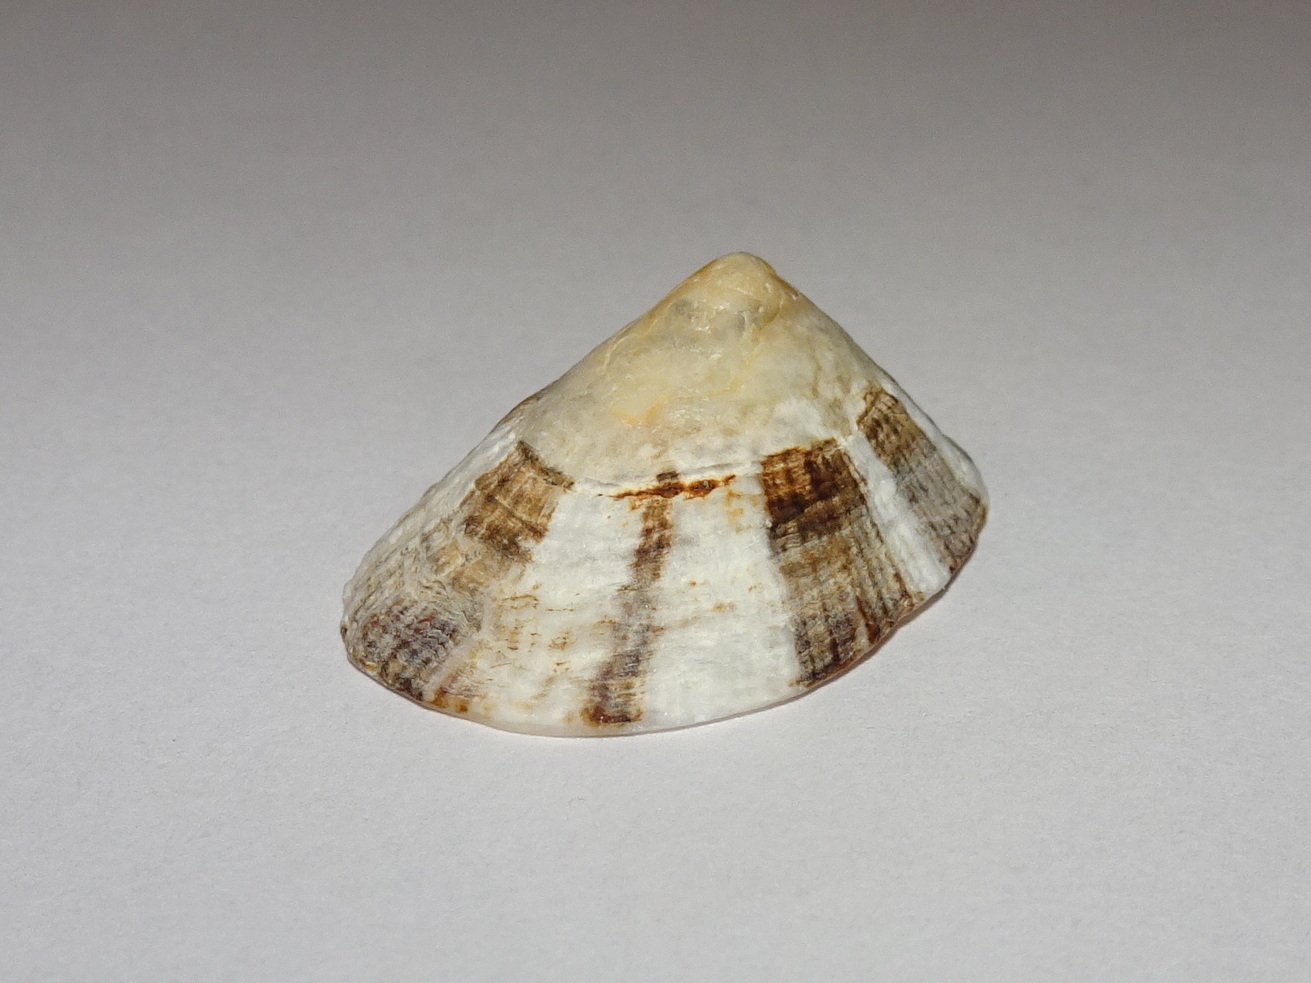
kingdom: Animalia
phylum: Mollusca
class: Gastropoda
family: Patellidae
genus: Patella
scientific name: Patella ulyssiponensis
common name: China limpet
